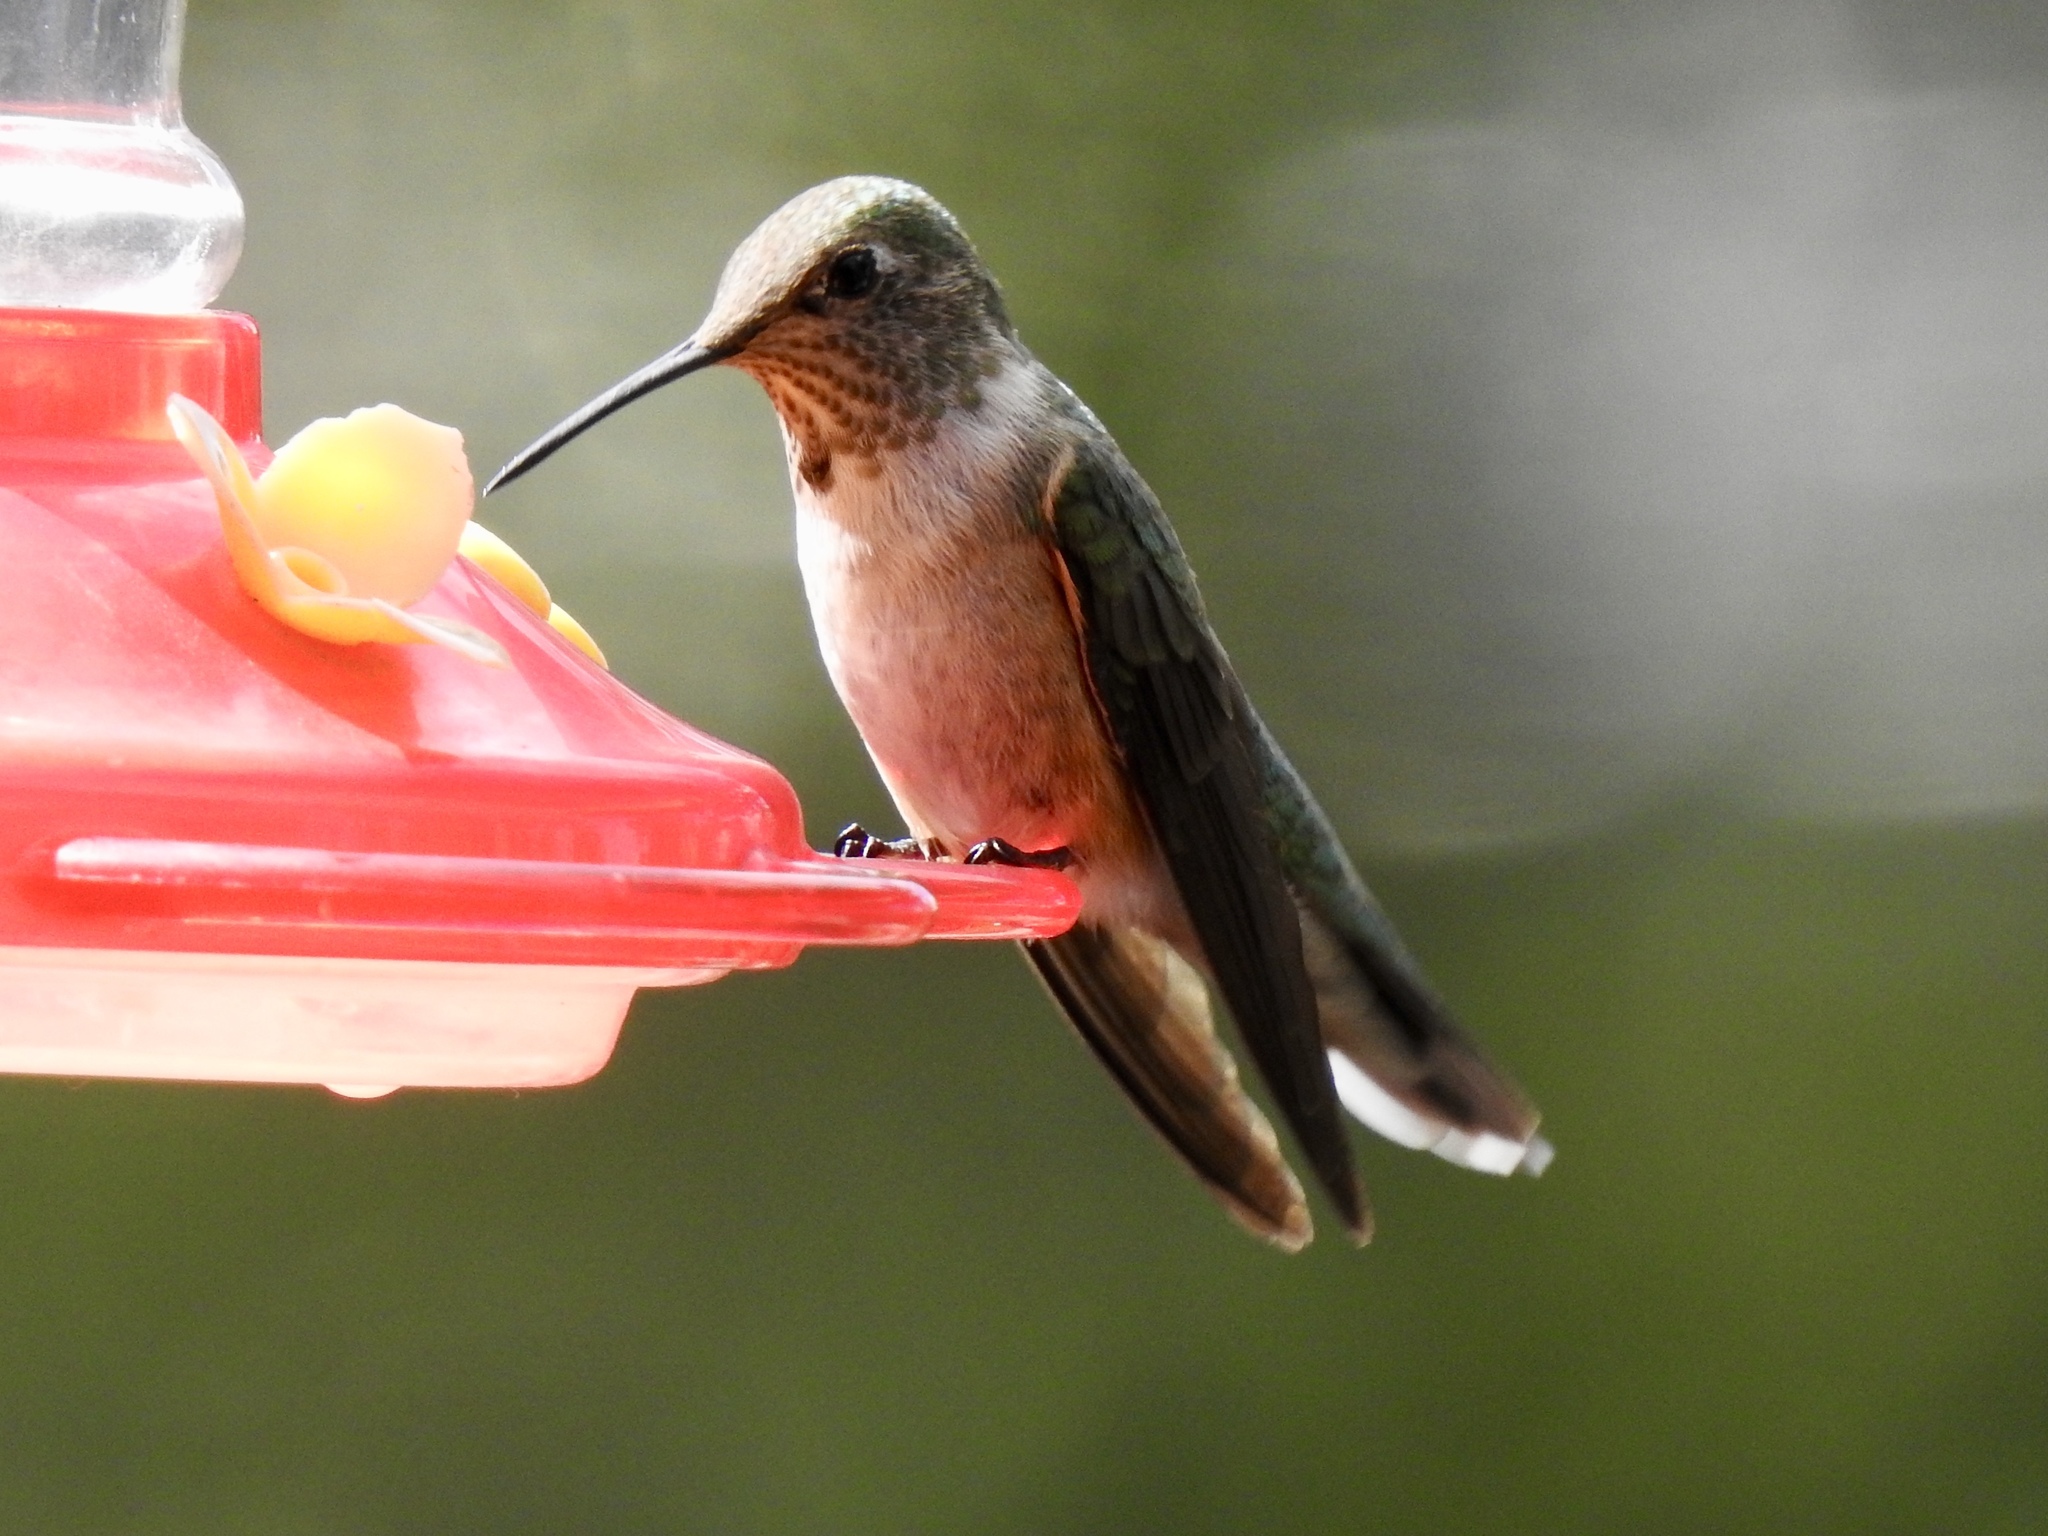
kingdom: Animalia
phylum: Chordata
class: Aves
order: Apodiformes
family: Trochilidae
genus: Selasphorus
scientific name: Selasphorus rufus
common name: Rufous hummingbird
